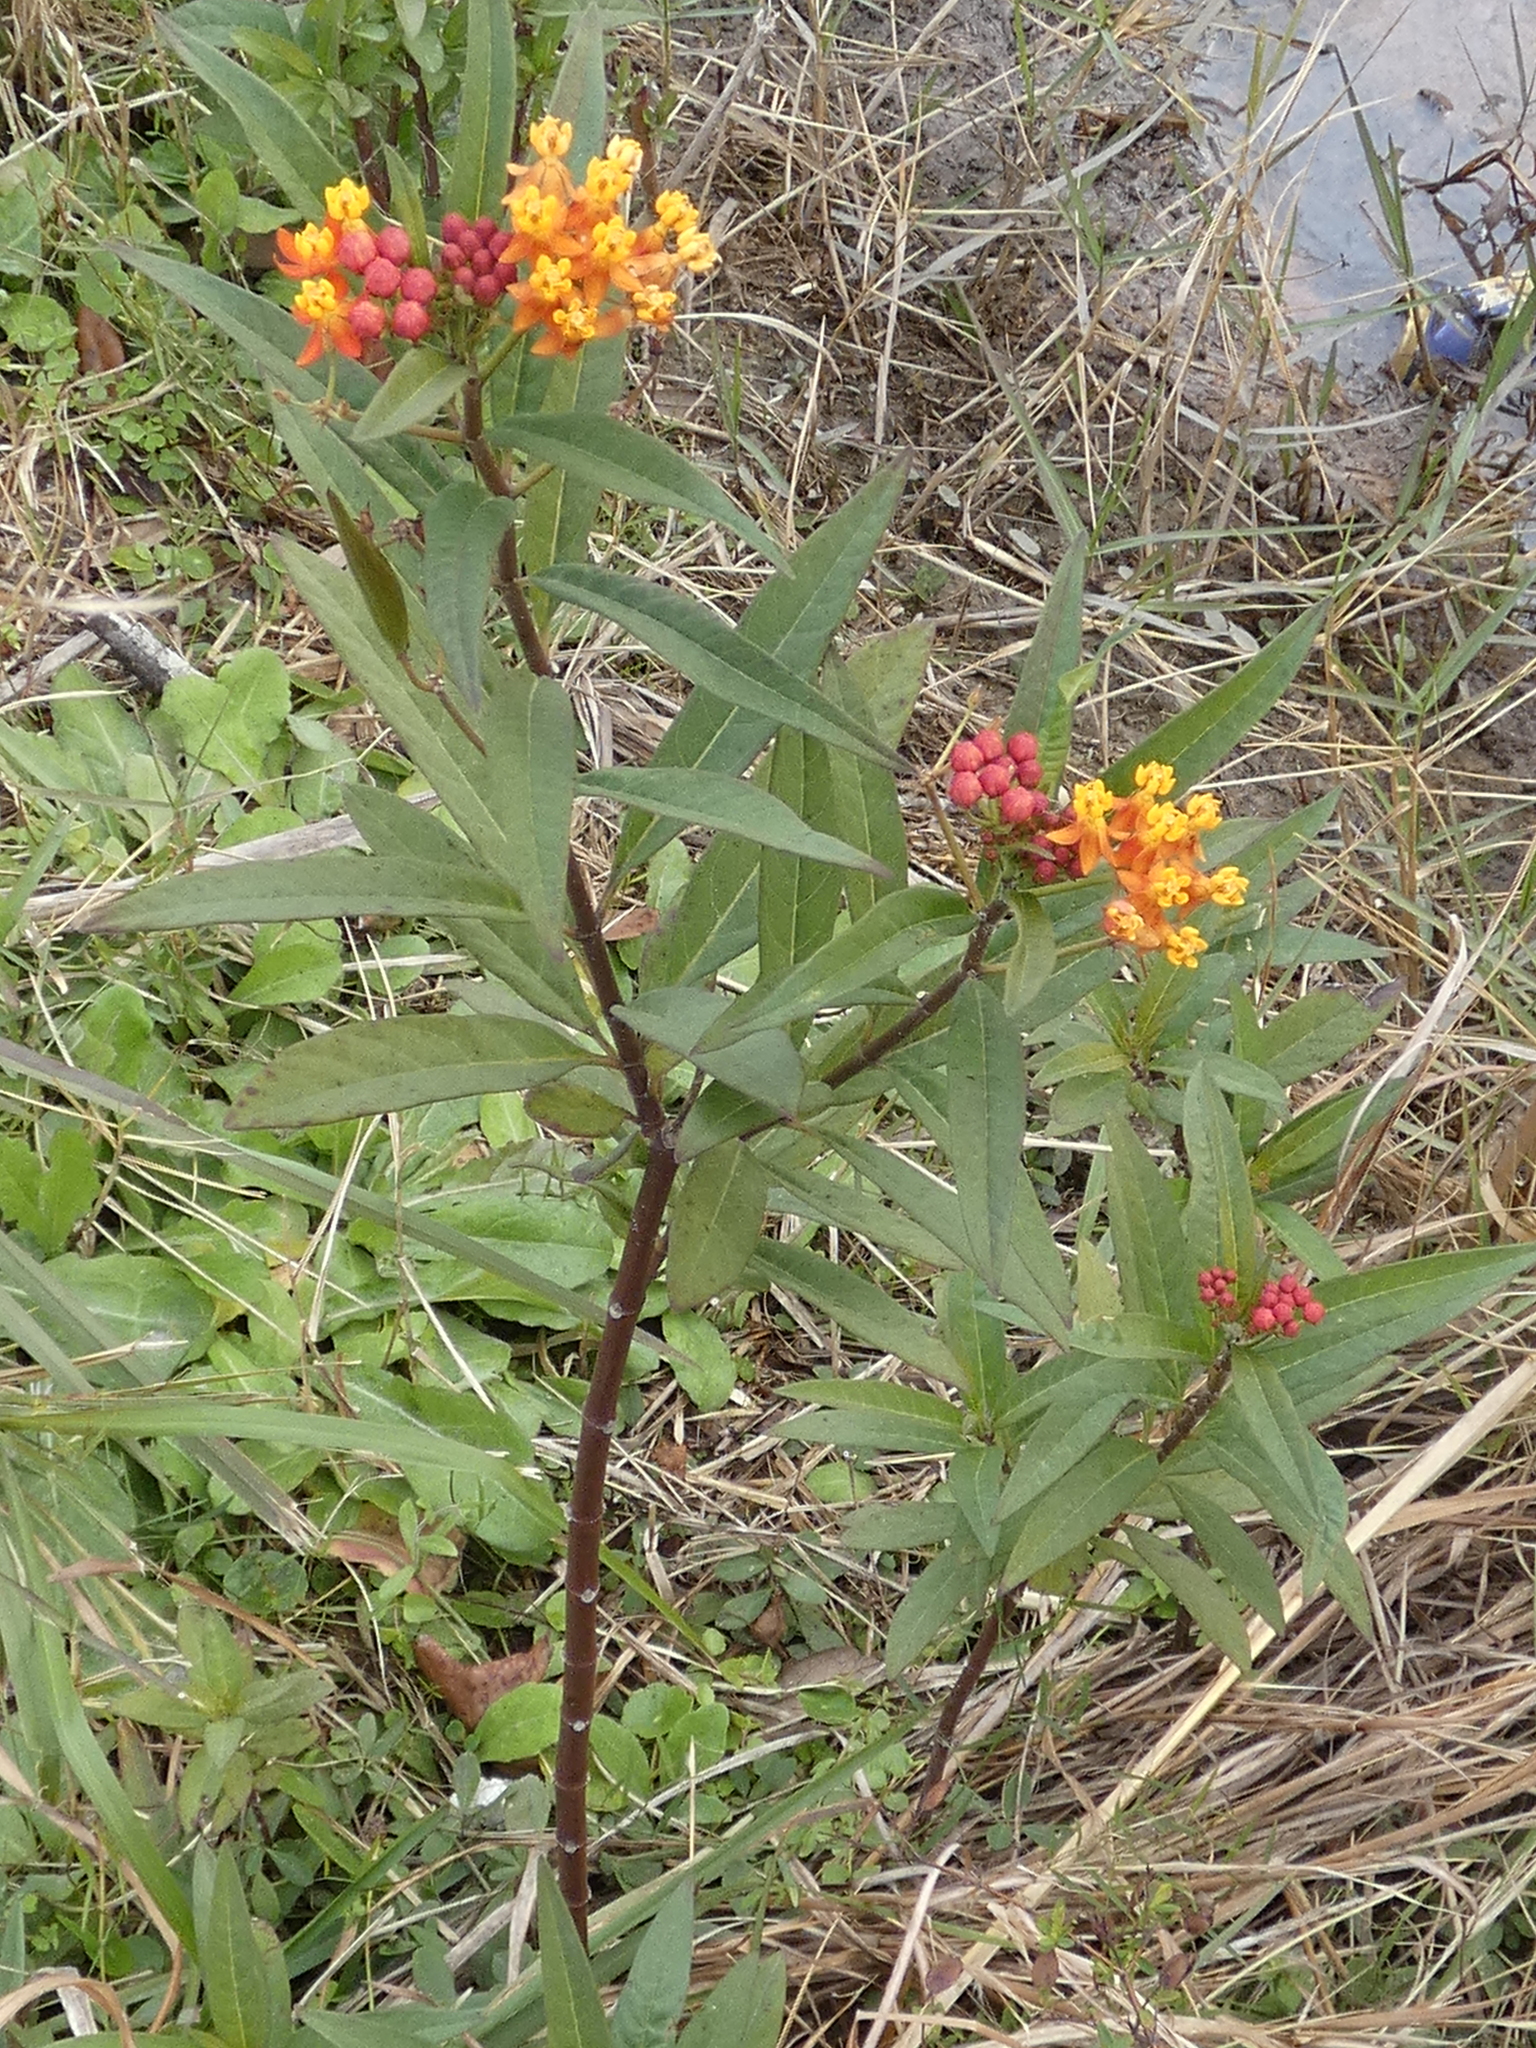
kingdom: Plantae
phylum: Tracheophyta
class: Magnoliopsida
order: Gentianales
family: Apocynaceae
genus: Asclepias
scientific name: Asclepias curassavica
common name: Bloodflower
